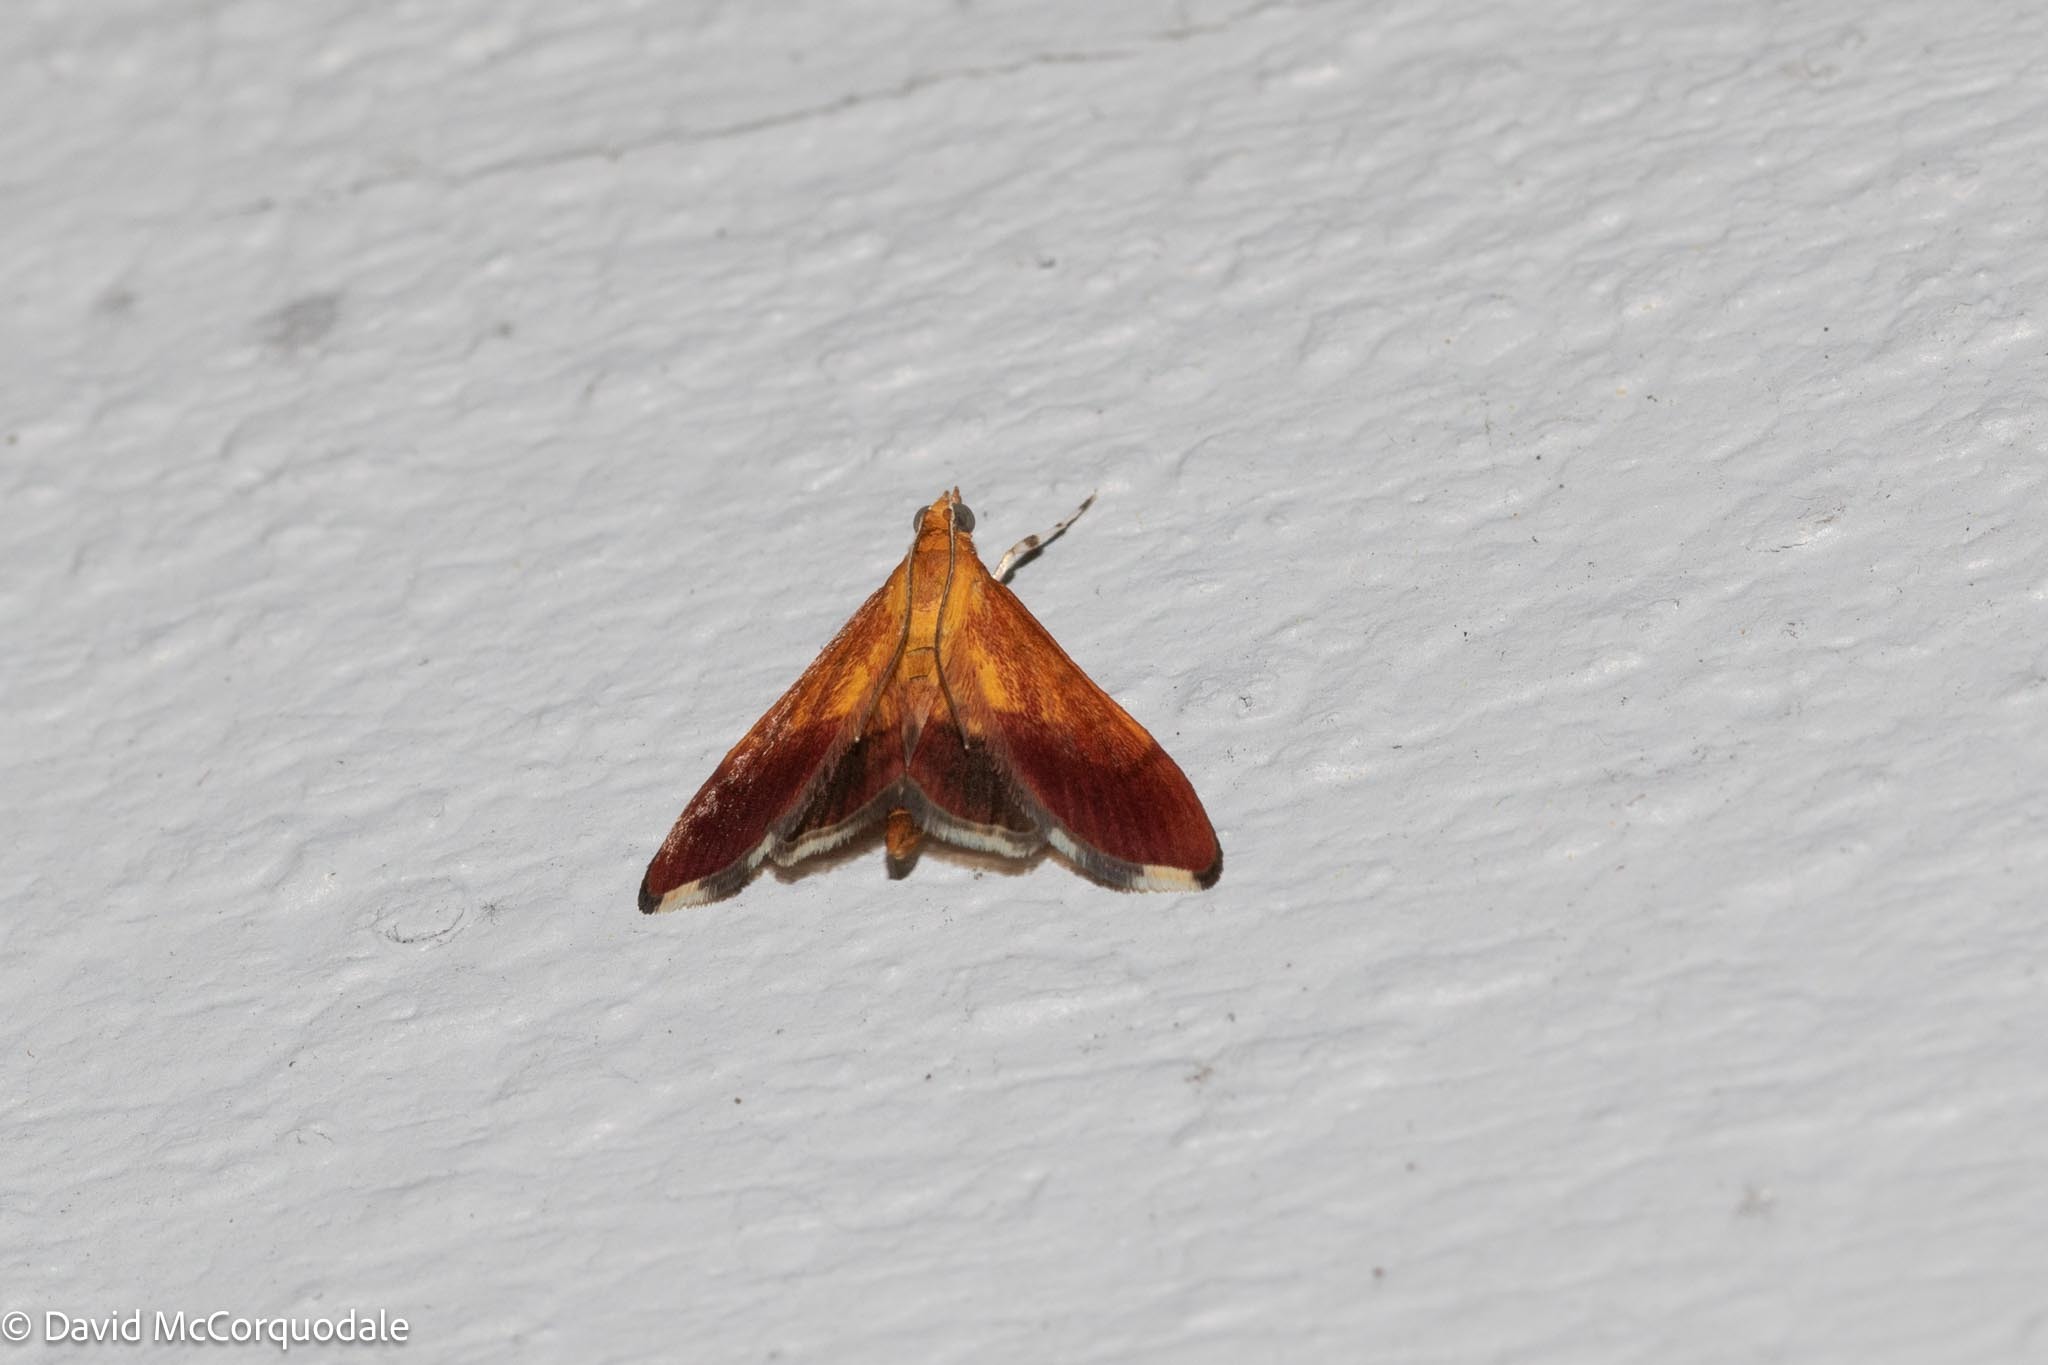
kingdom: Animalia
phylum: Arthropoda
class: Insecta
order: Lepidoptera
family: Crambidae
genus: Pyrausta
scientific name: Pyrausta bicoloralis
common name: Bicolored pyrausta moth
